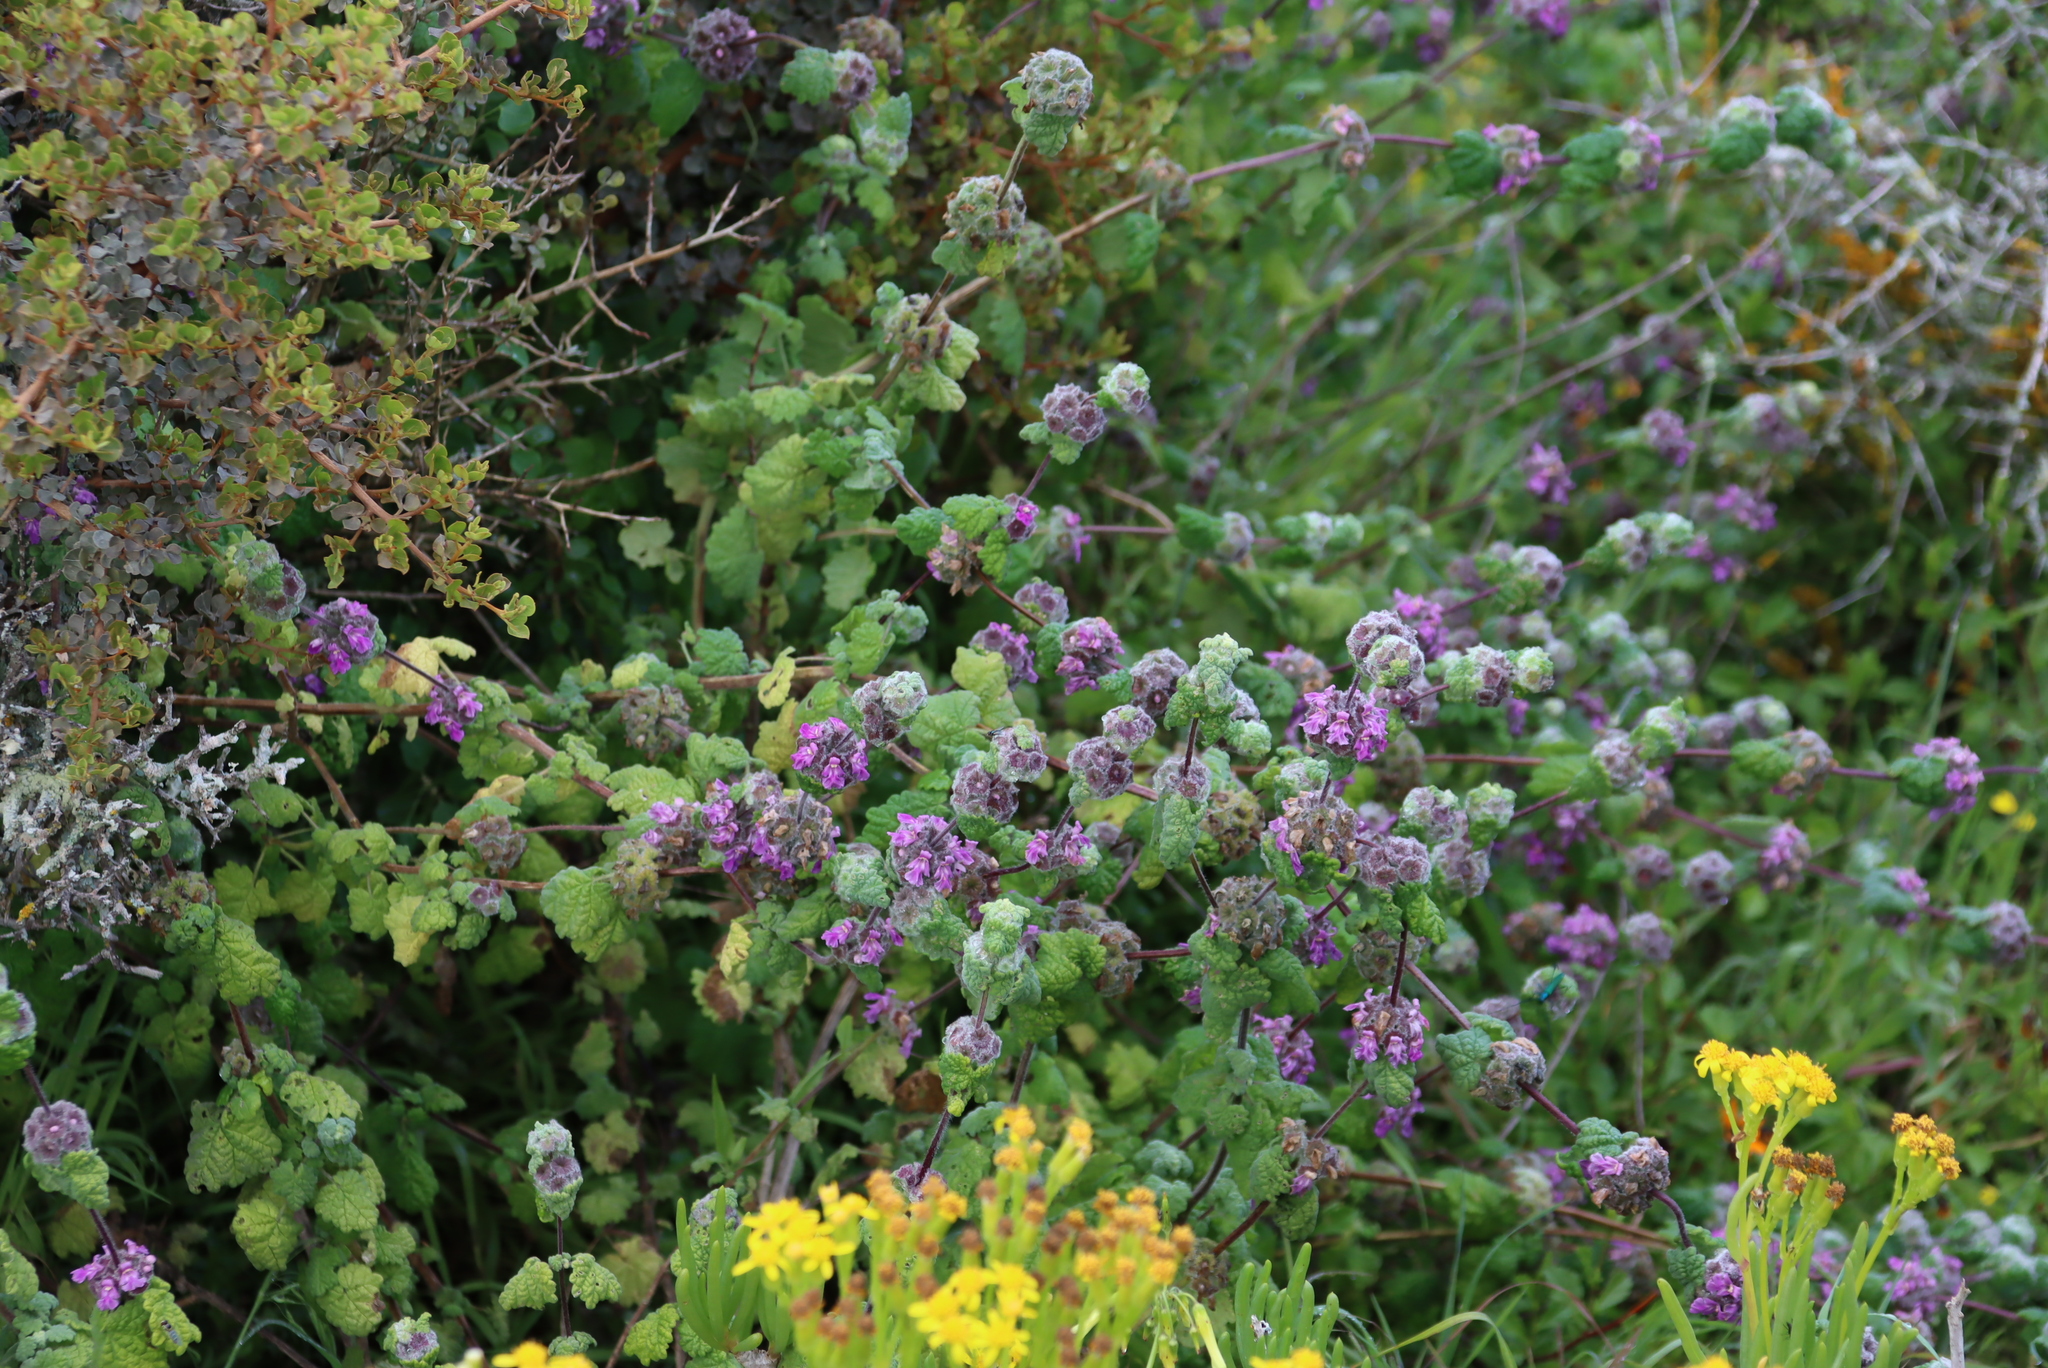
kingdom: Plantae
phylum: Tracheophyta
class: Magnoliopsida
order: Lamiales
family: Lamiaceae
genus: Pseudodictamnus
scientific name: Pseudodictamnus africanus
